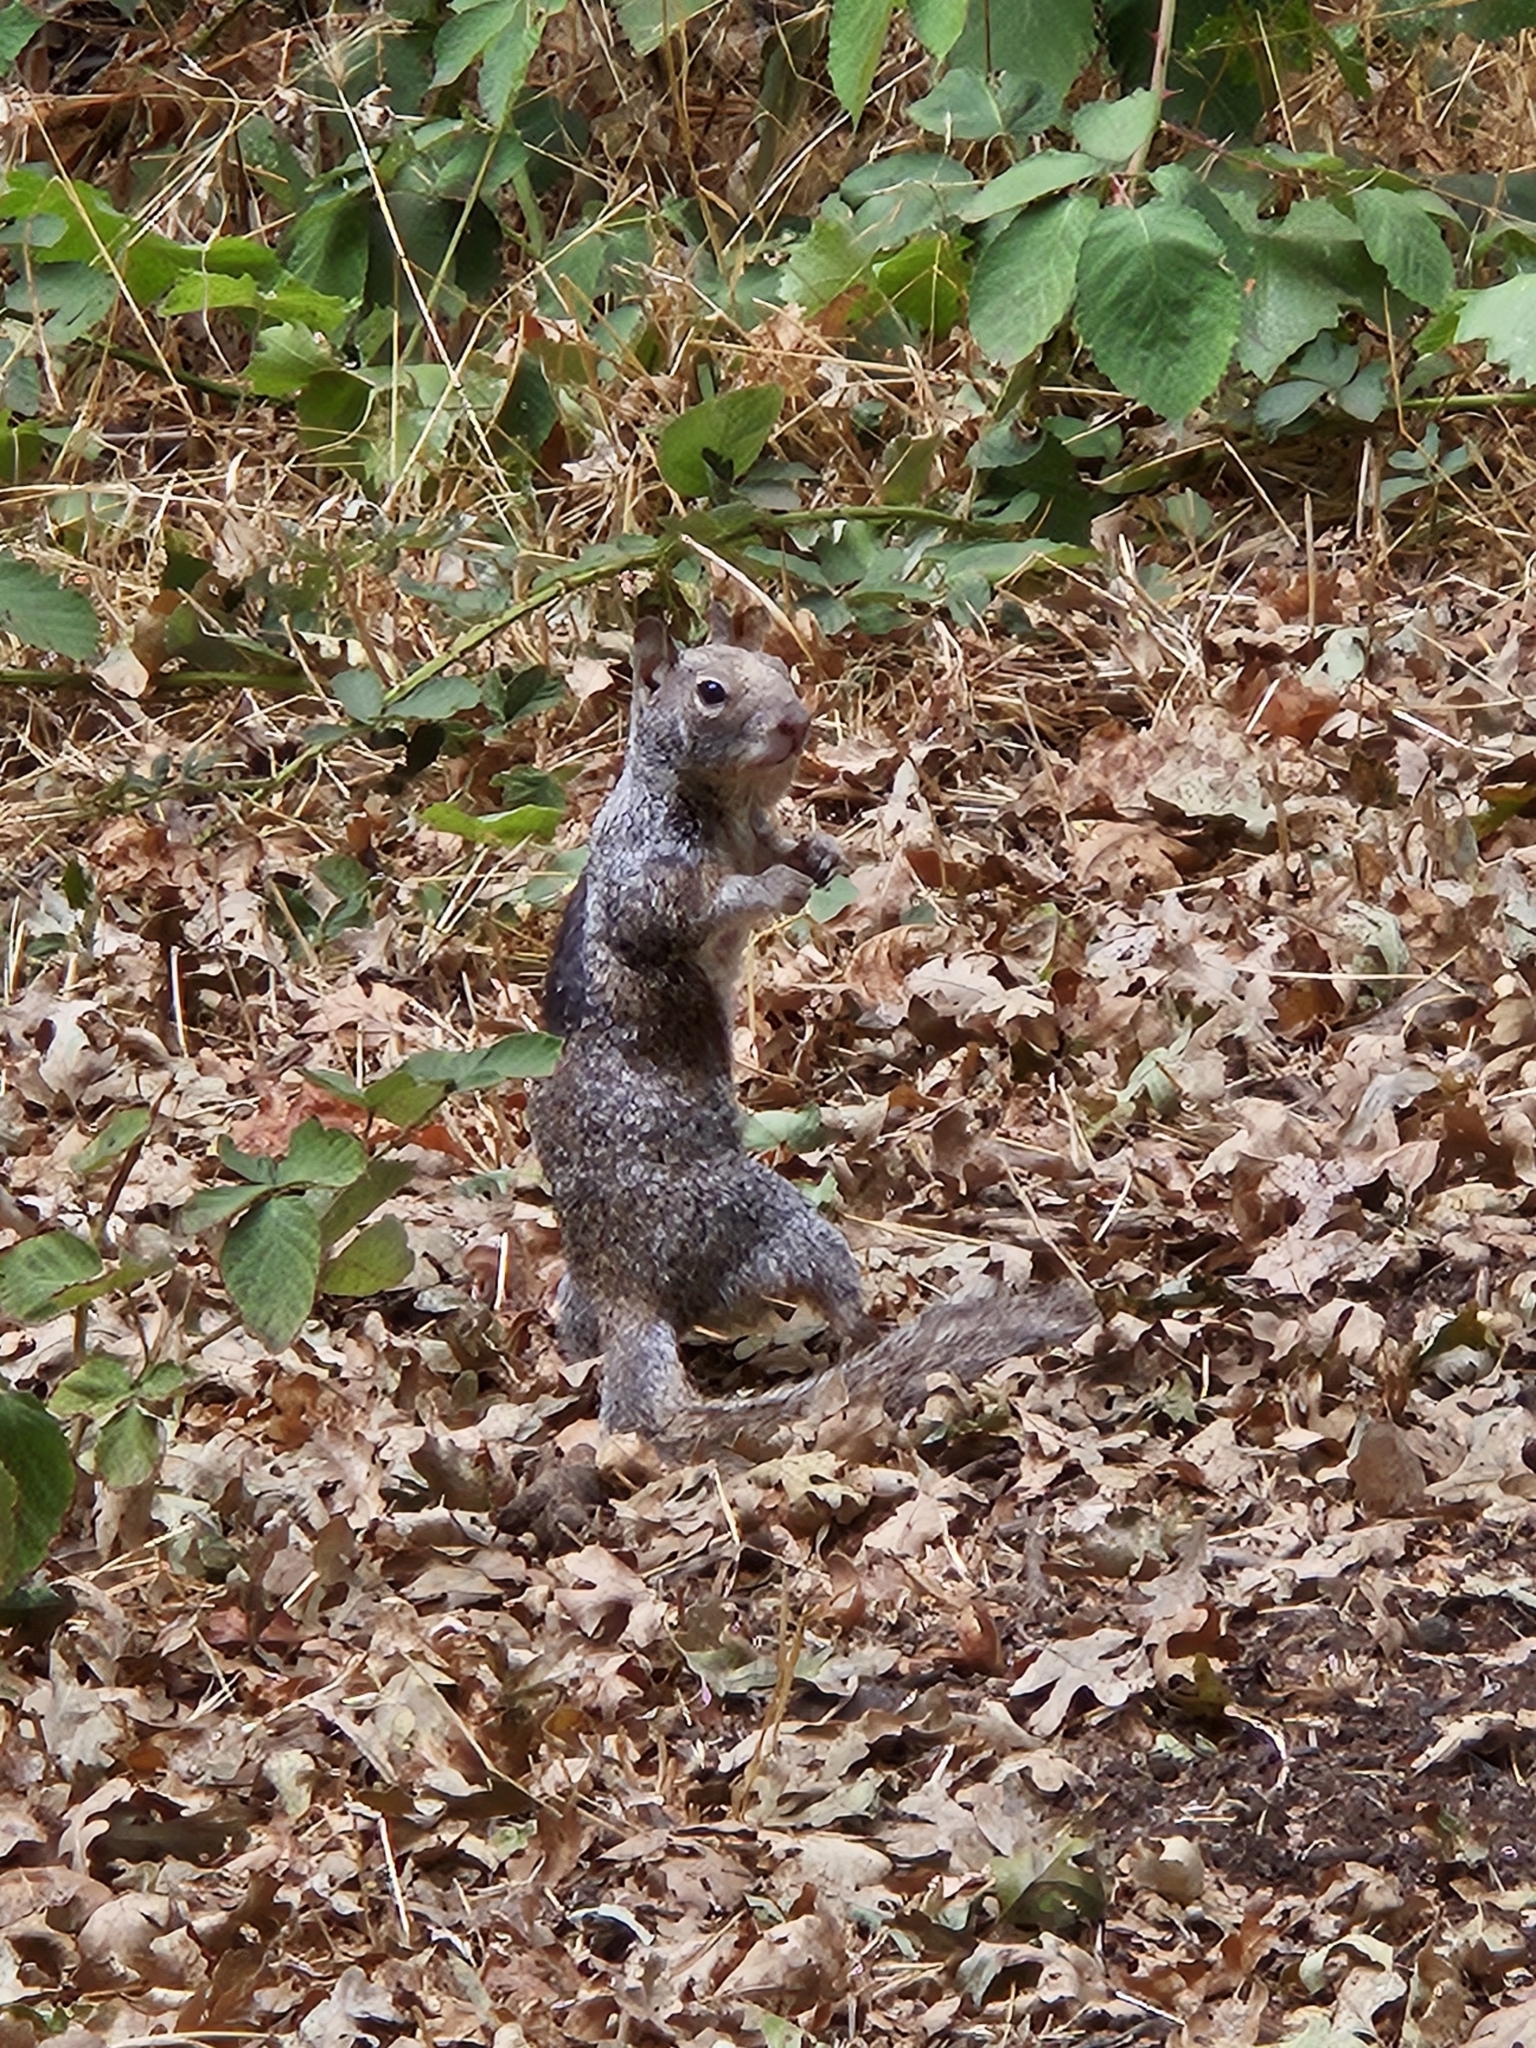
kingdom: Animalia
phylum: Chordata
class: Mammalia
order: Rodentia
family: Sciuridae
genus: Otospermophilus
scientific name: Otospermophilus beecheyi
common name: California ground squirrel
